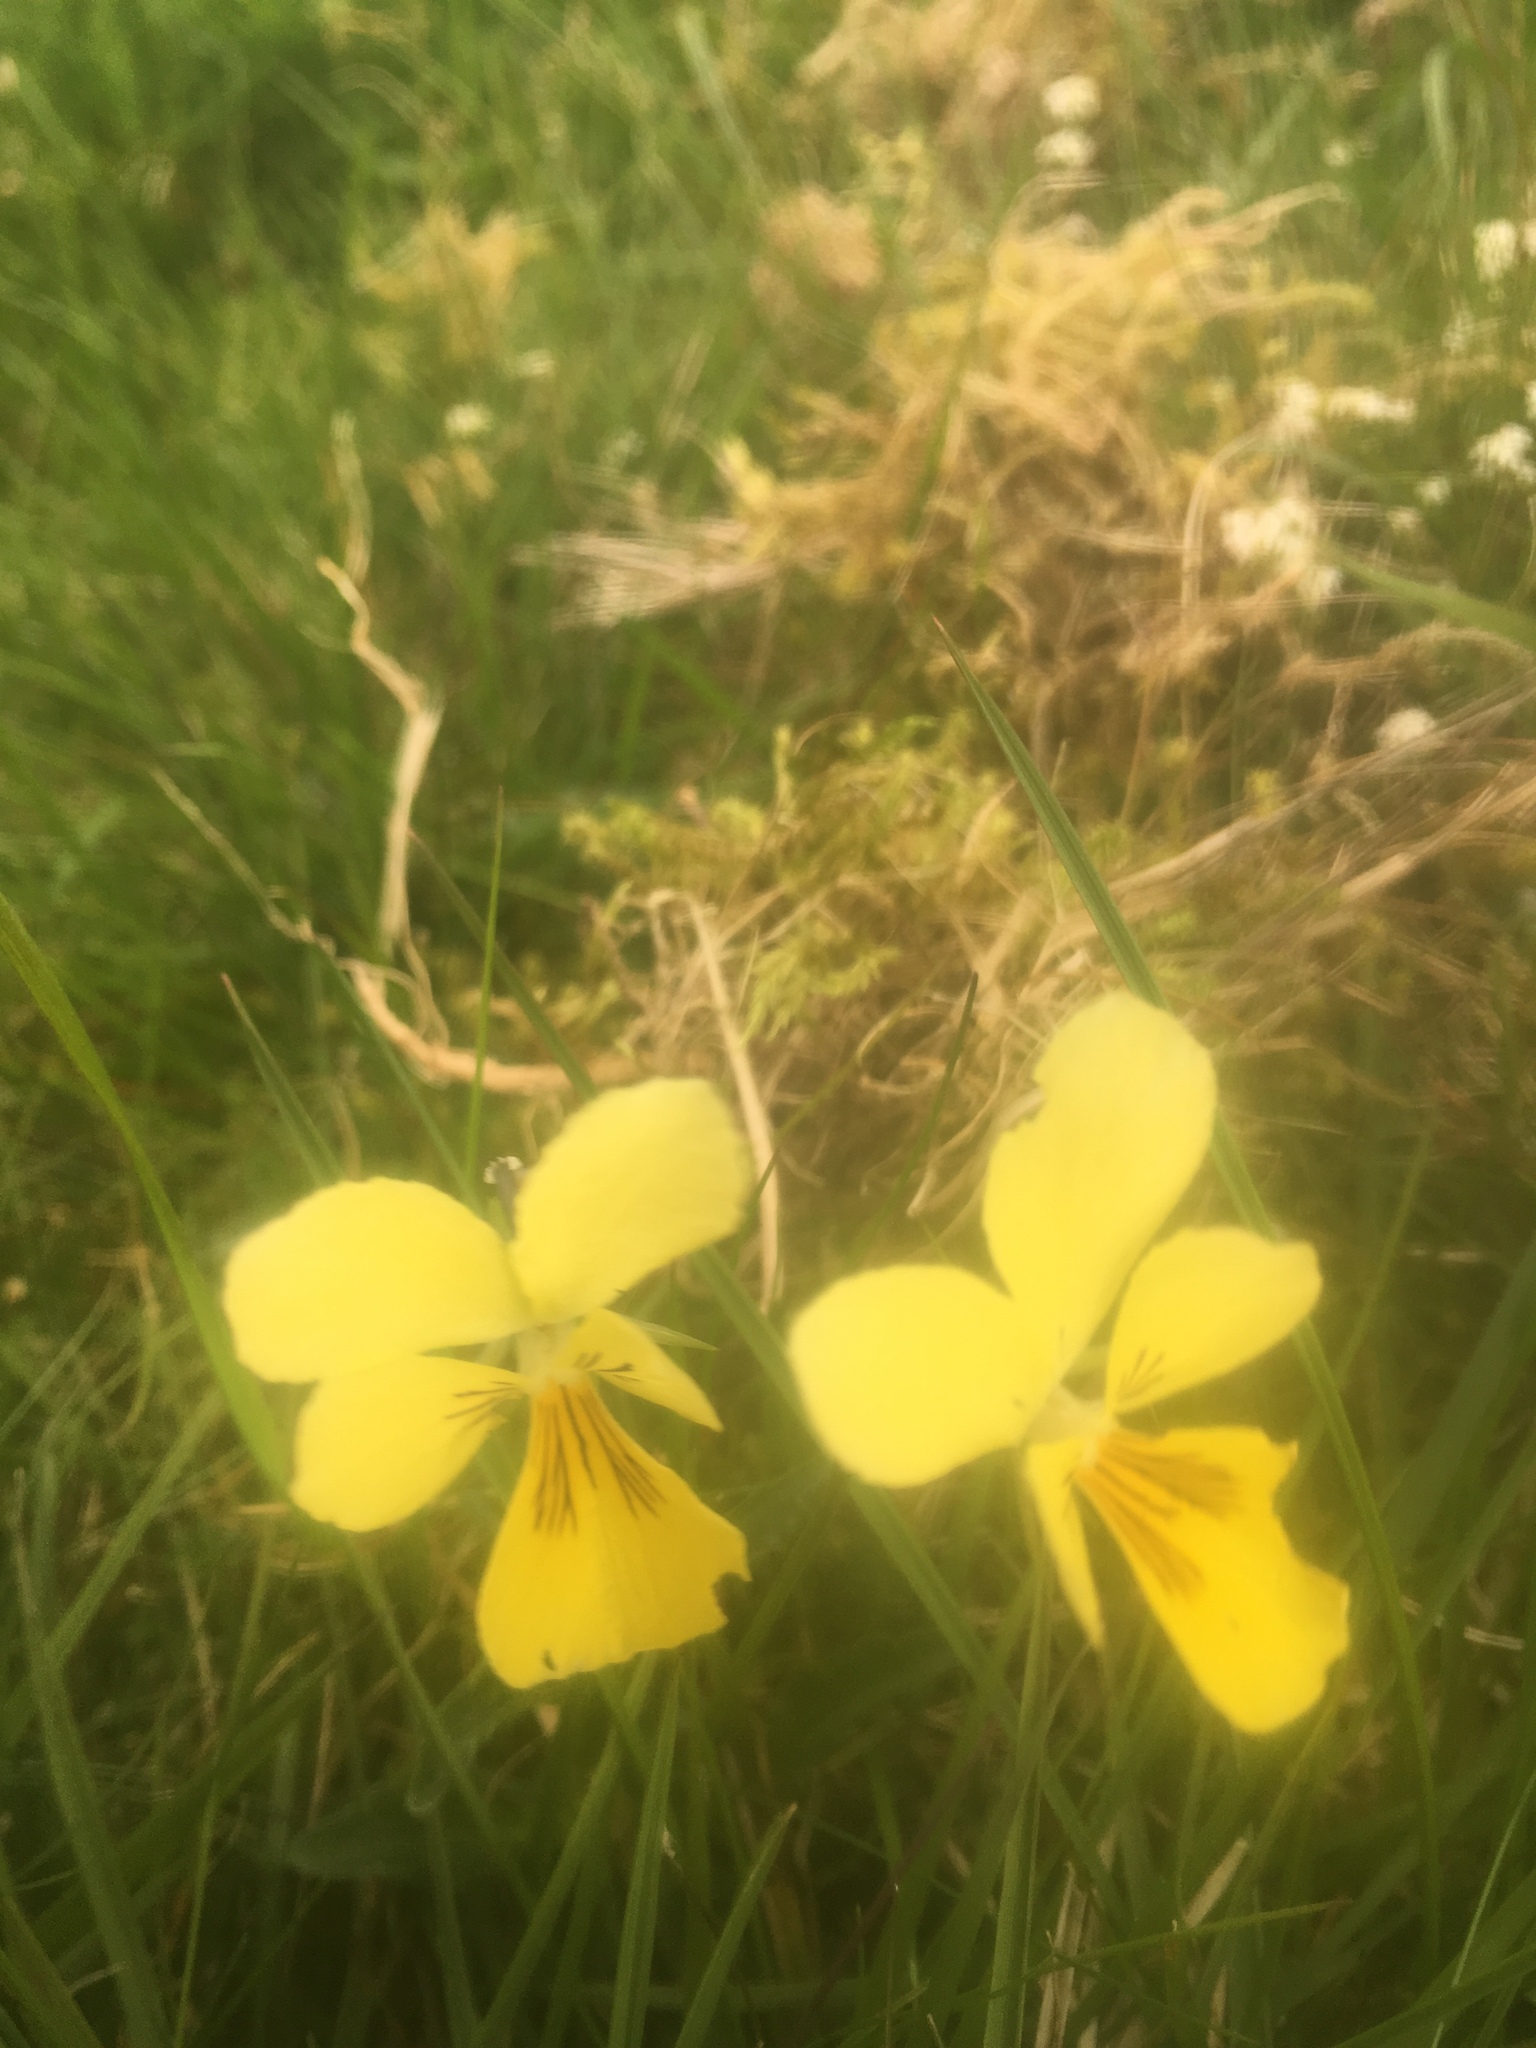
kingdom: Plantae
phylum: Tracheophyta
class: Magnoliopsida
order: Malpighiales
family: Violaceae
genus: Viola
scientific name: Viola lutea
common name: Mountain pansy
